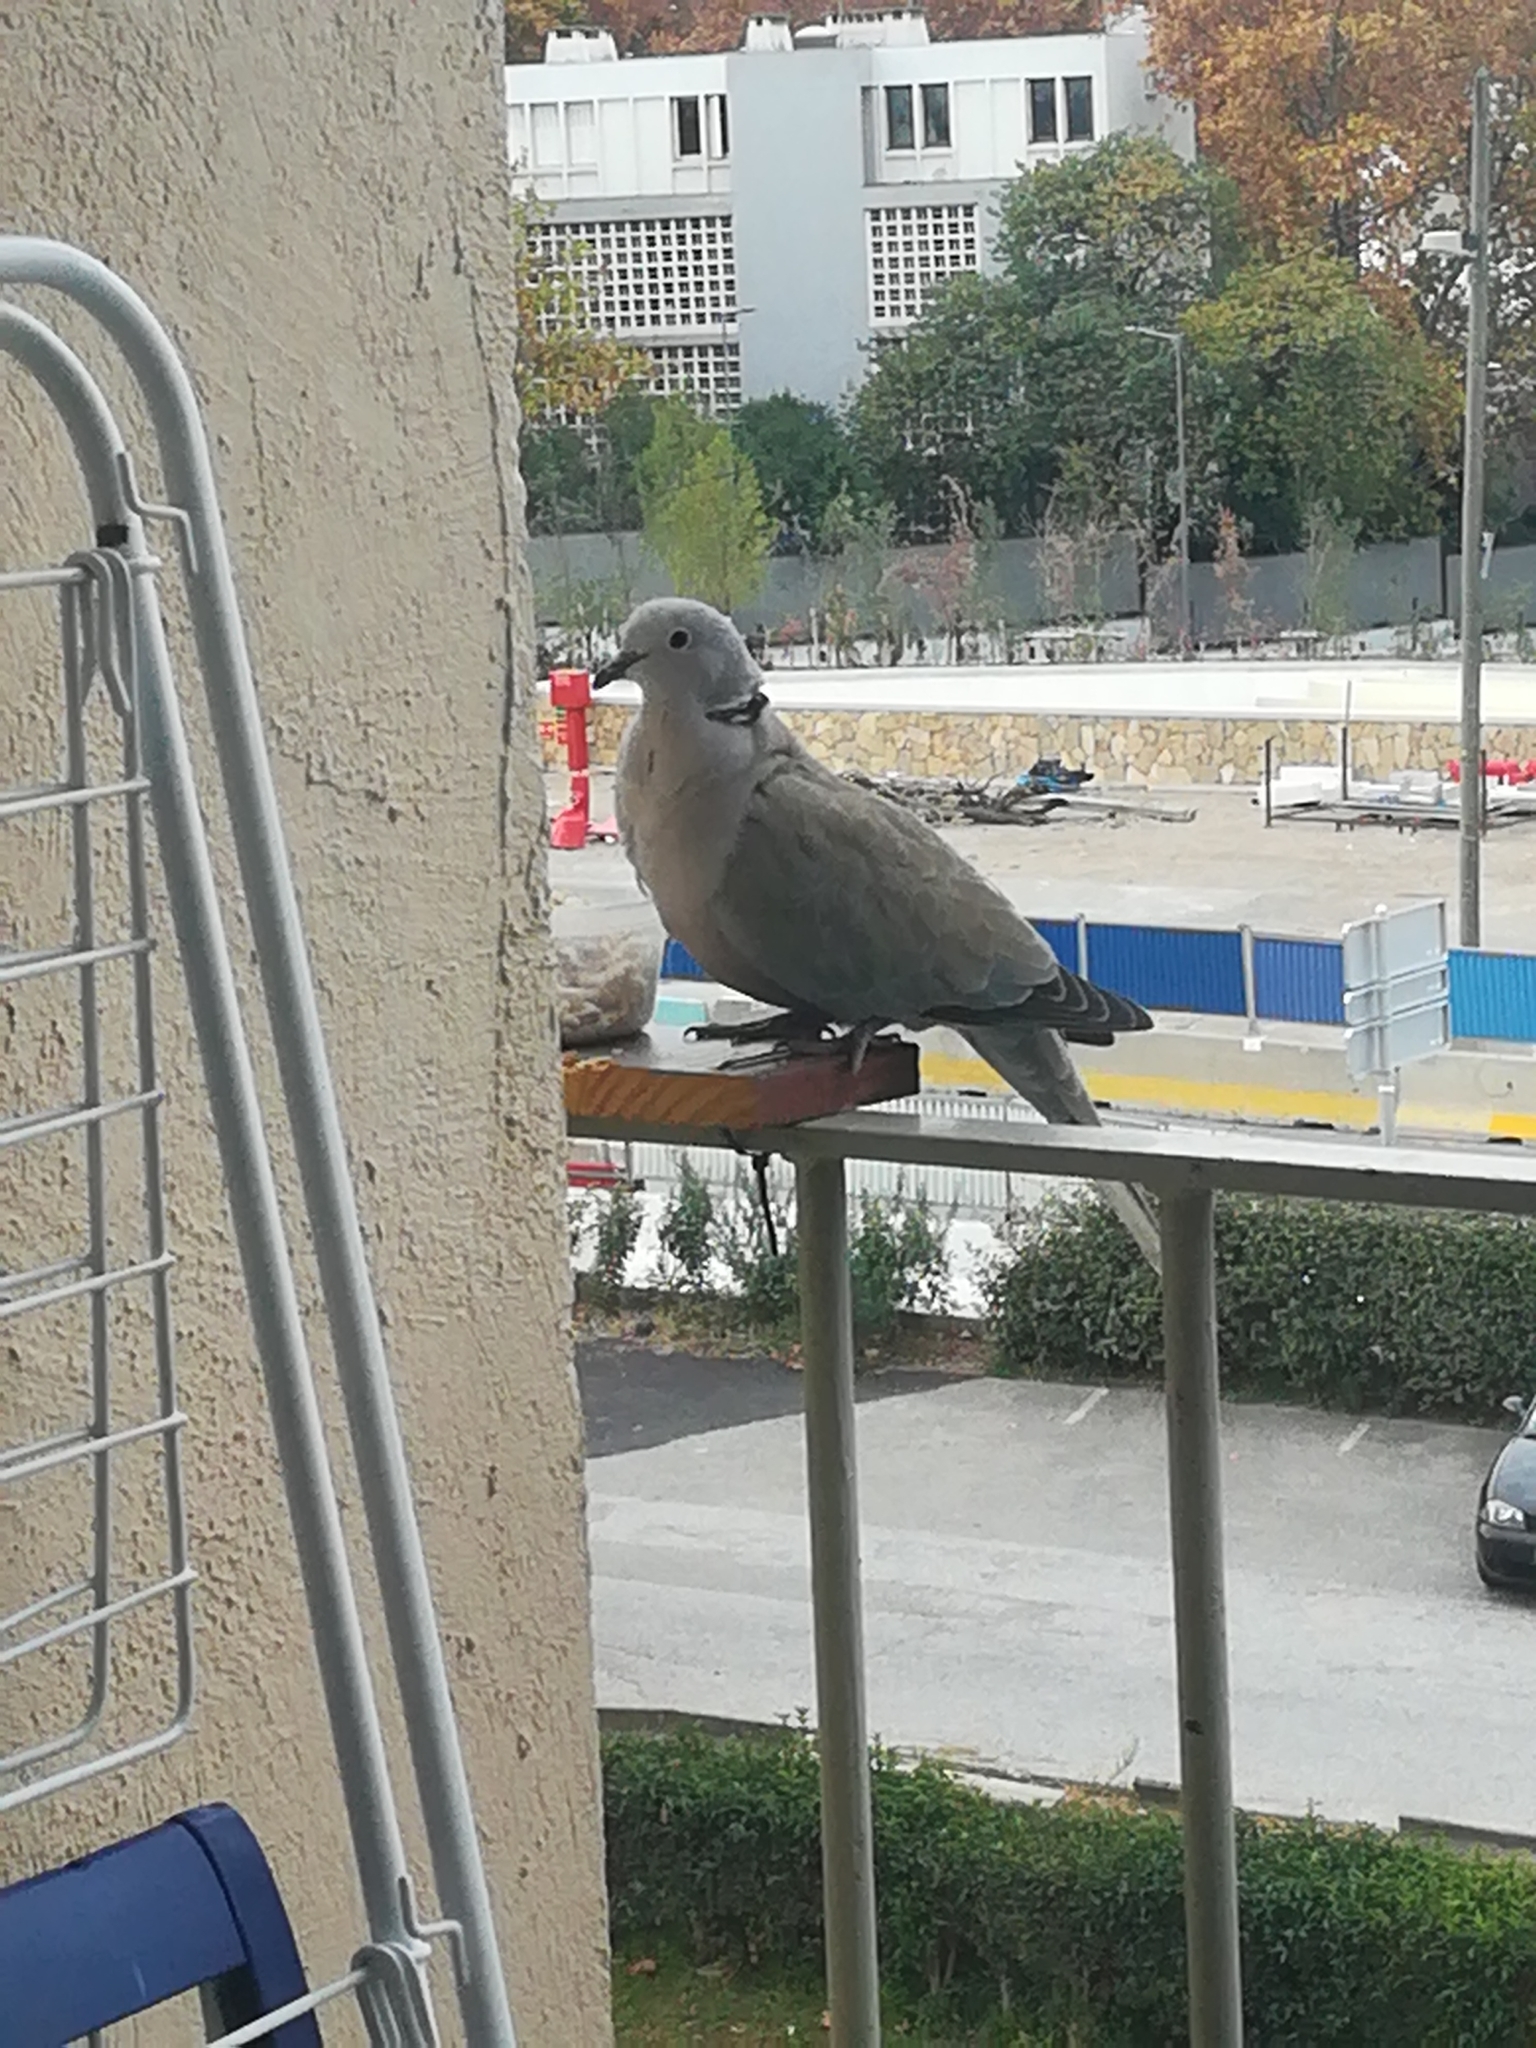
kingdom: Animalia
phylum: Chordata
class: Aves
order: Columbiformes
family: Columbidae
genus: Streptopelia
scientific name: Streptopelia decaocto
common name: Eurasian collared dove
